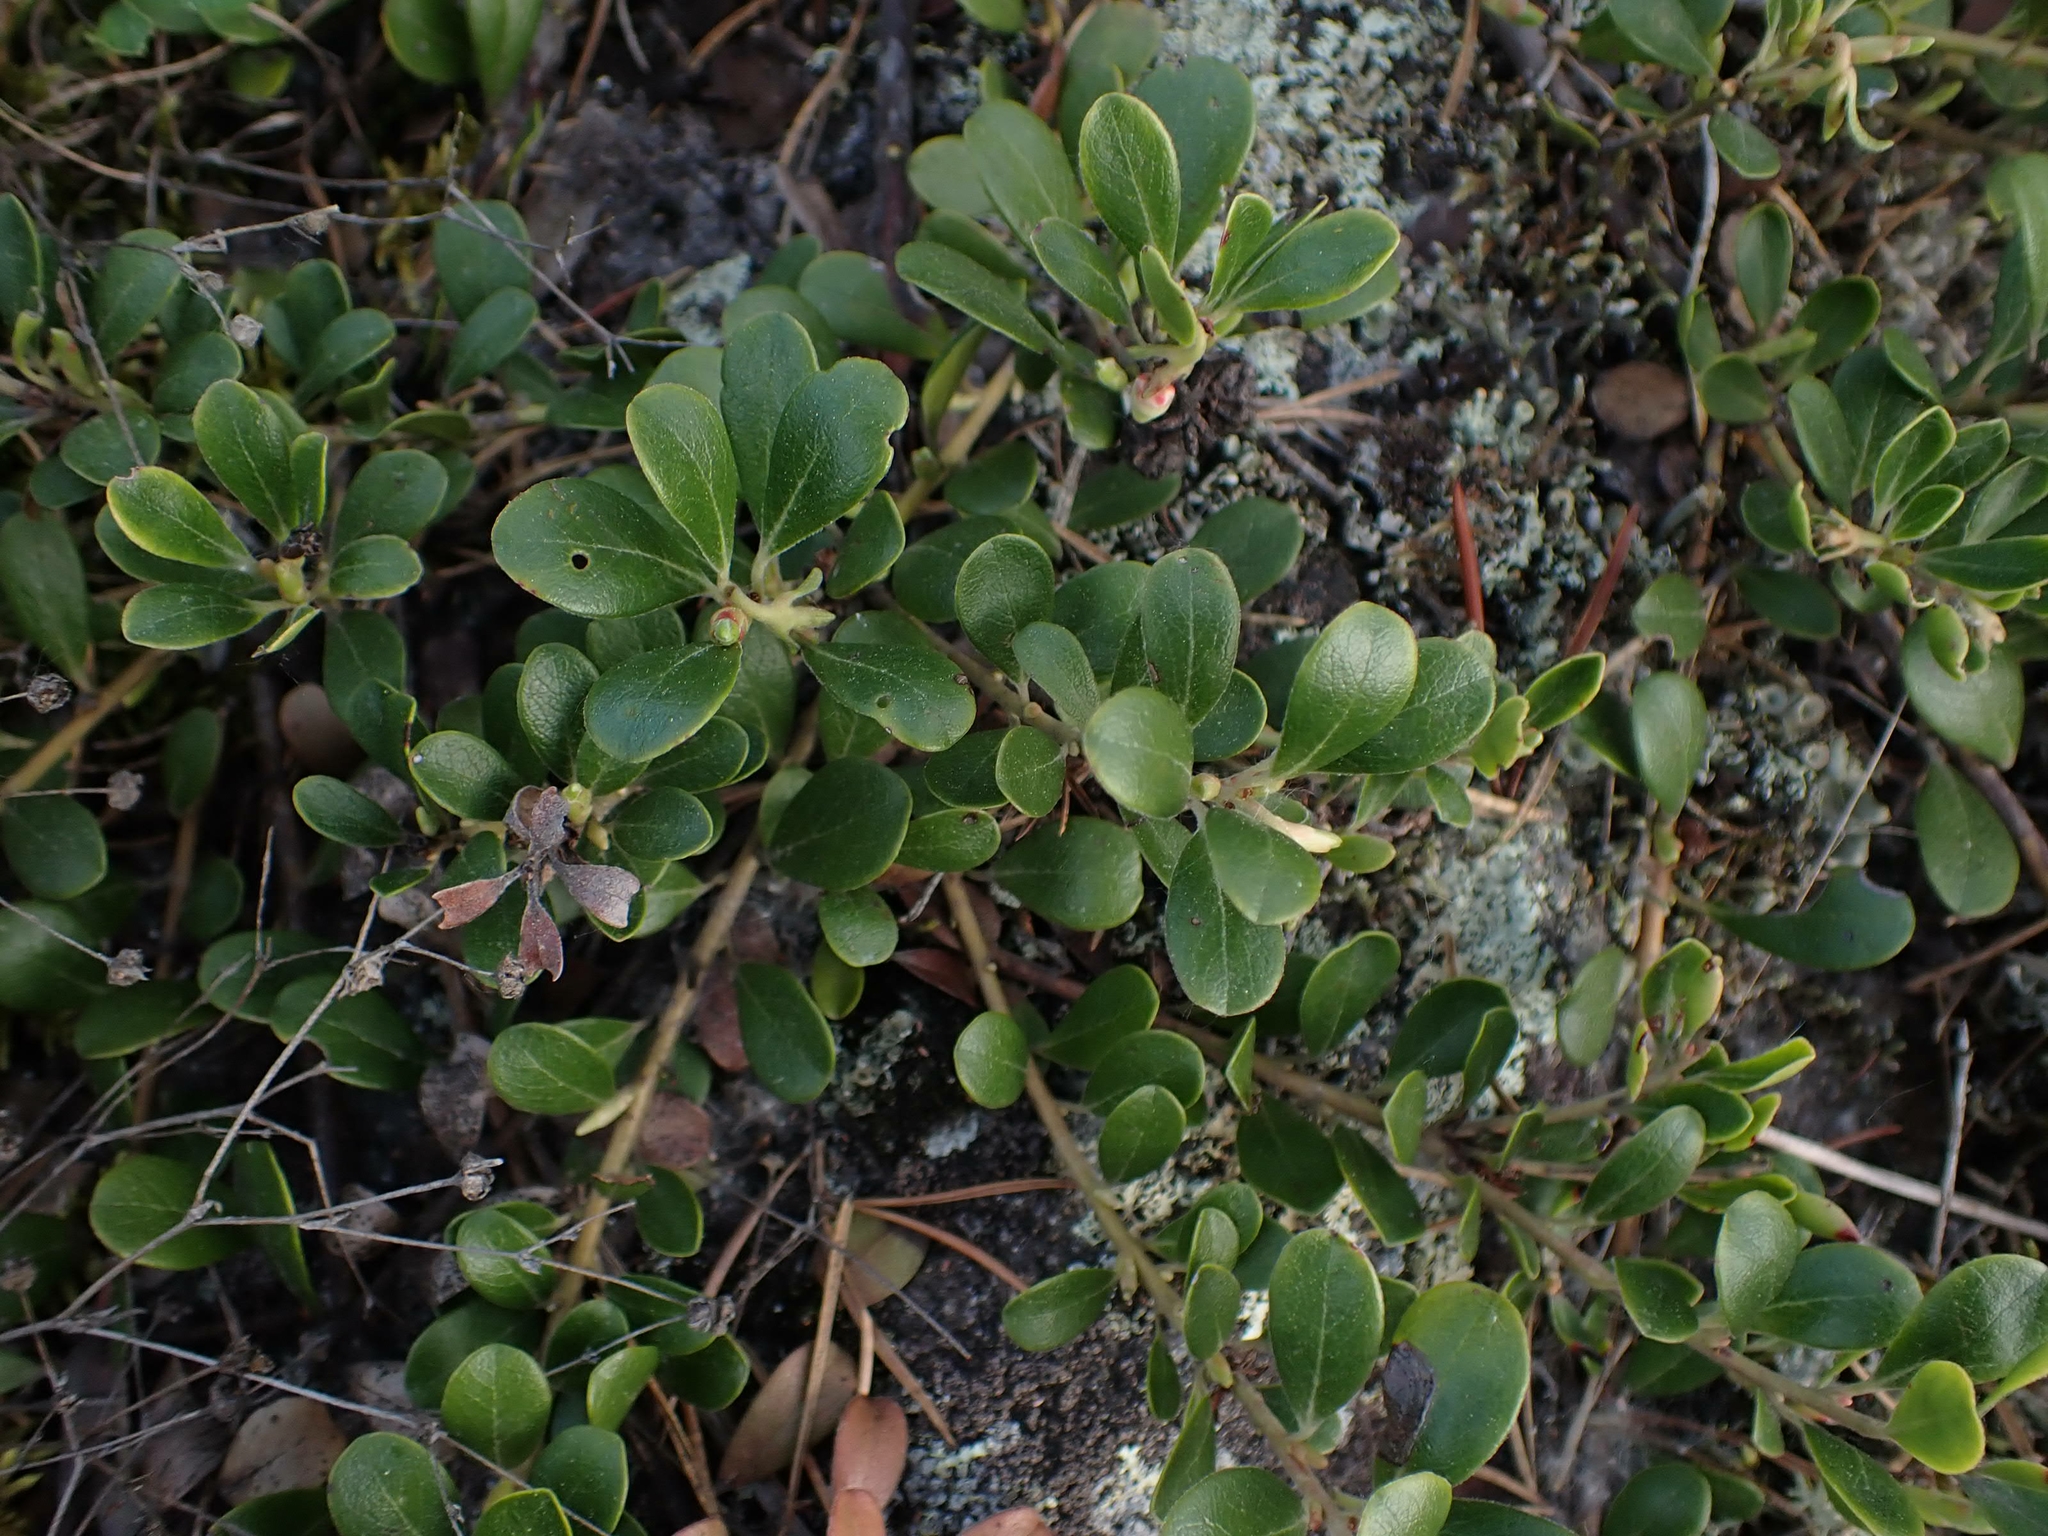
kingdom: Plantae
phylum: Tracheophyta
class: Magnoliopsida
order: Ericales
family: Ericaceae
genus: Arctostaphylos
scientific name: Arctostaphylos uva-ursi
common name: Bearberry
